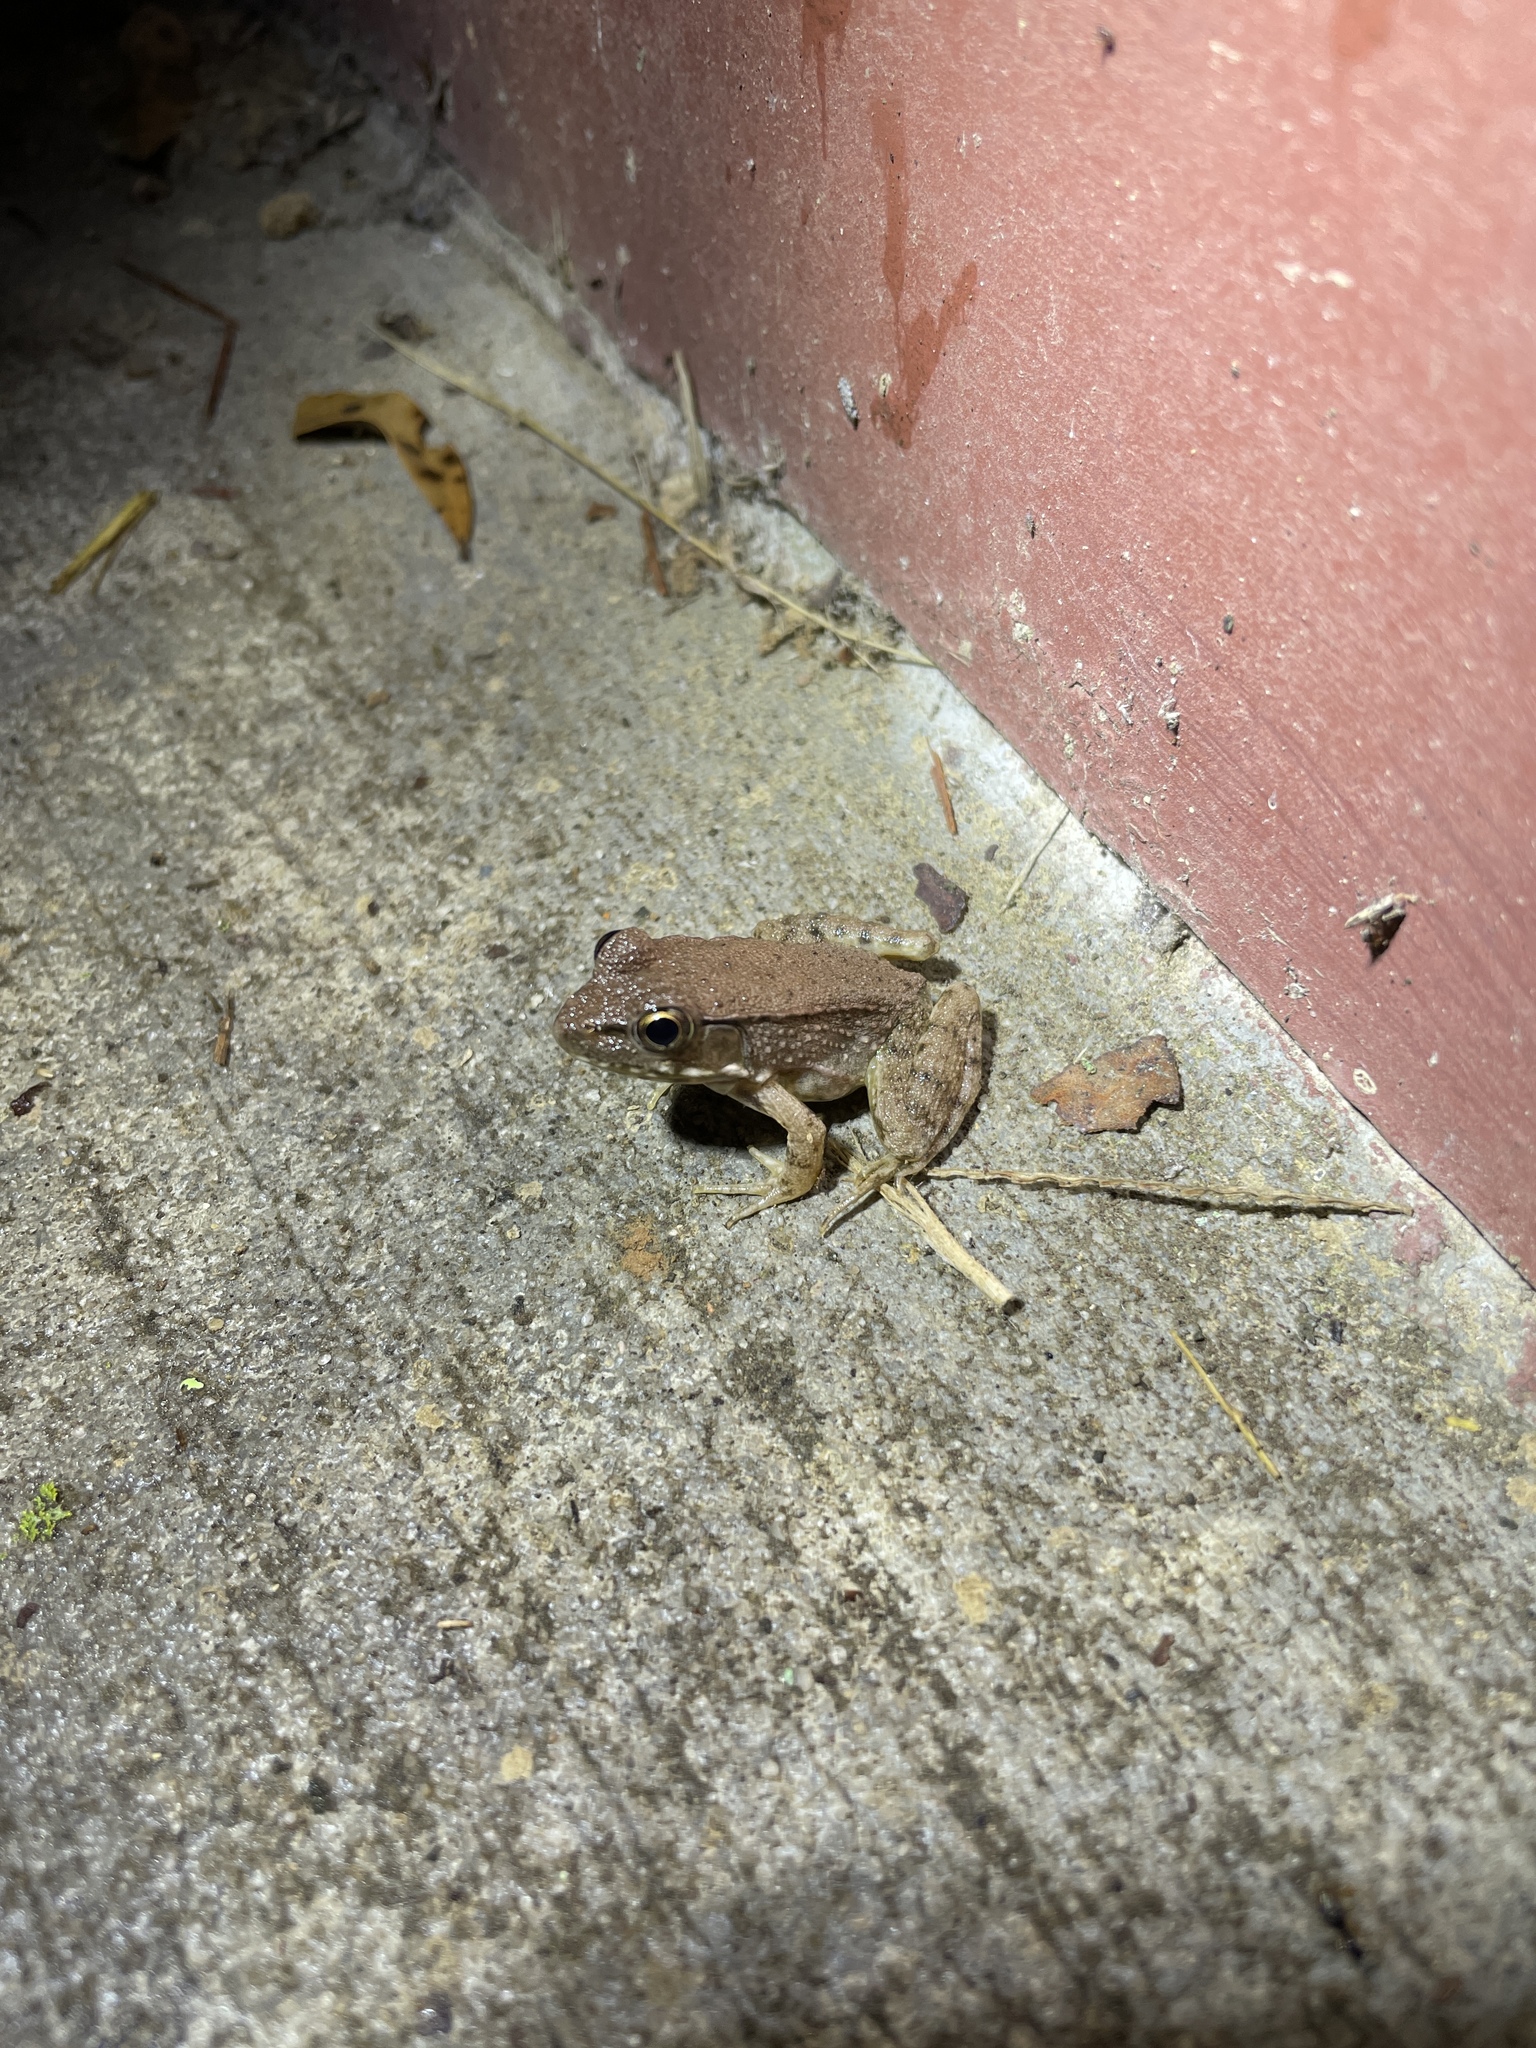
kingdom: Animalia
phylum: Chordata
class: Amphibia
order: Anura
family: Ranidae
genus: Lithobates
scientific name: Lithobates clamitans
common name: Green frog
